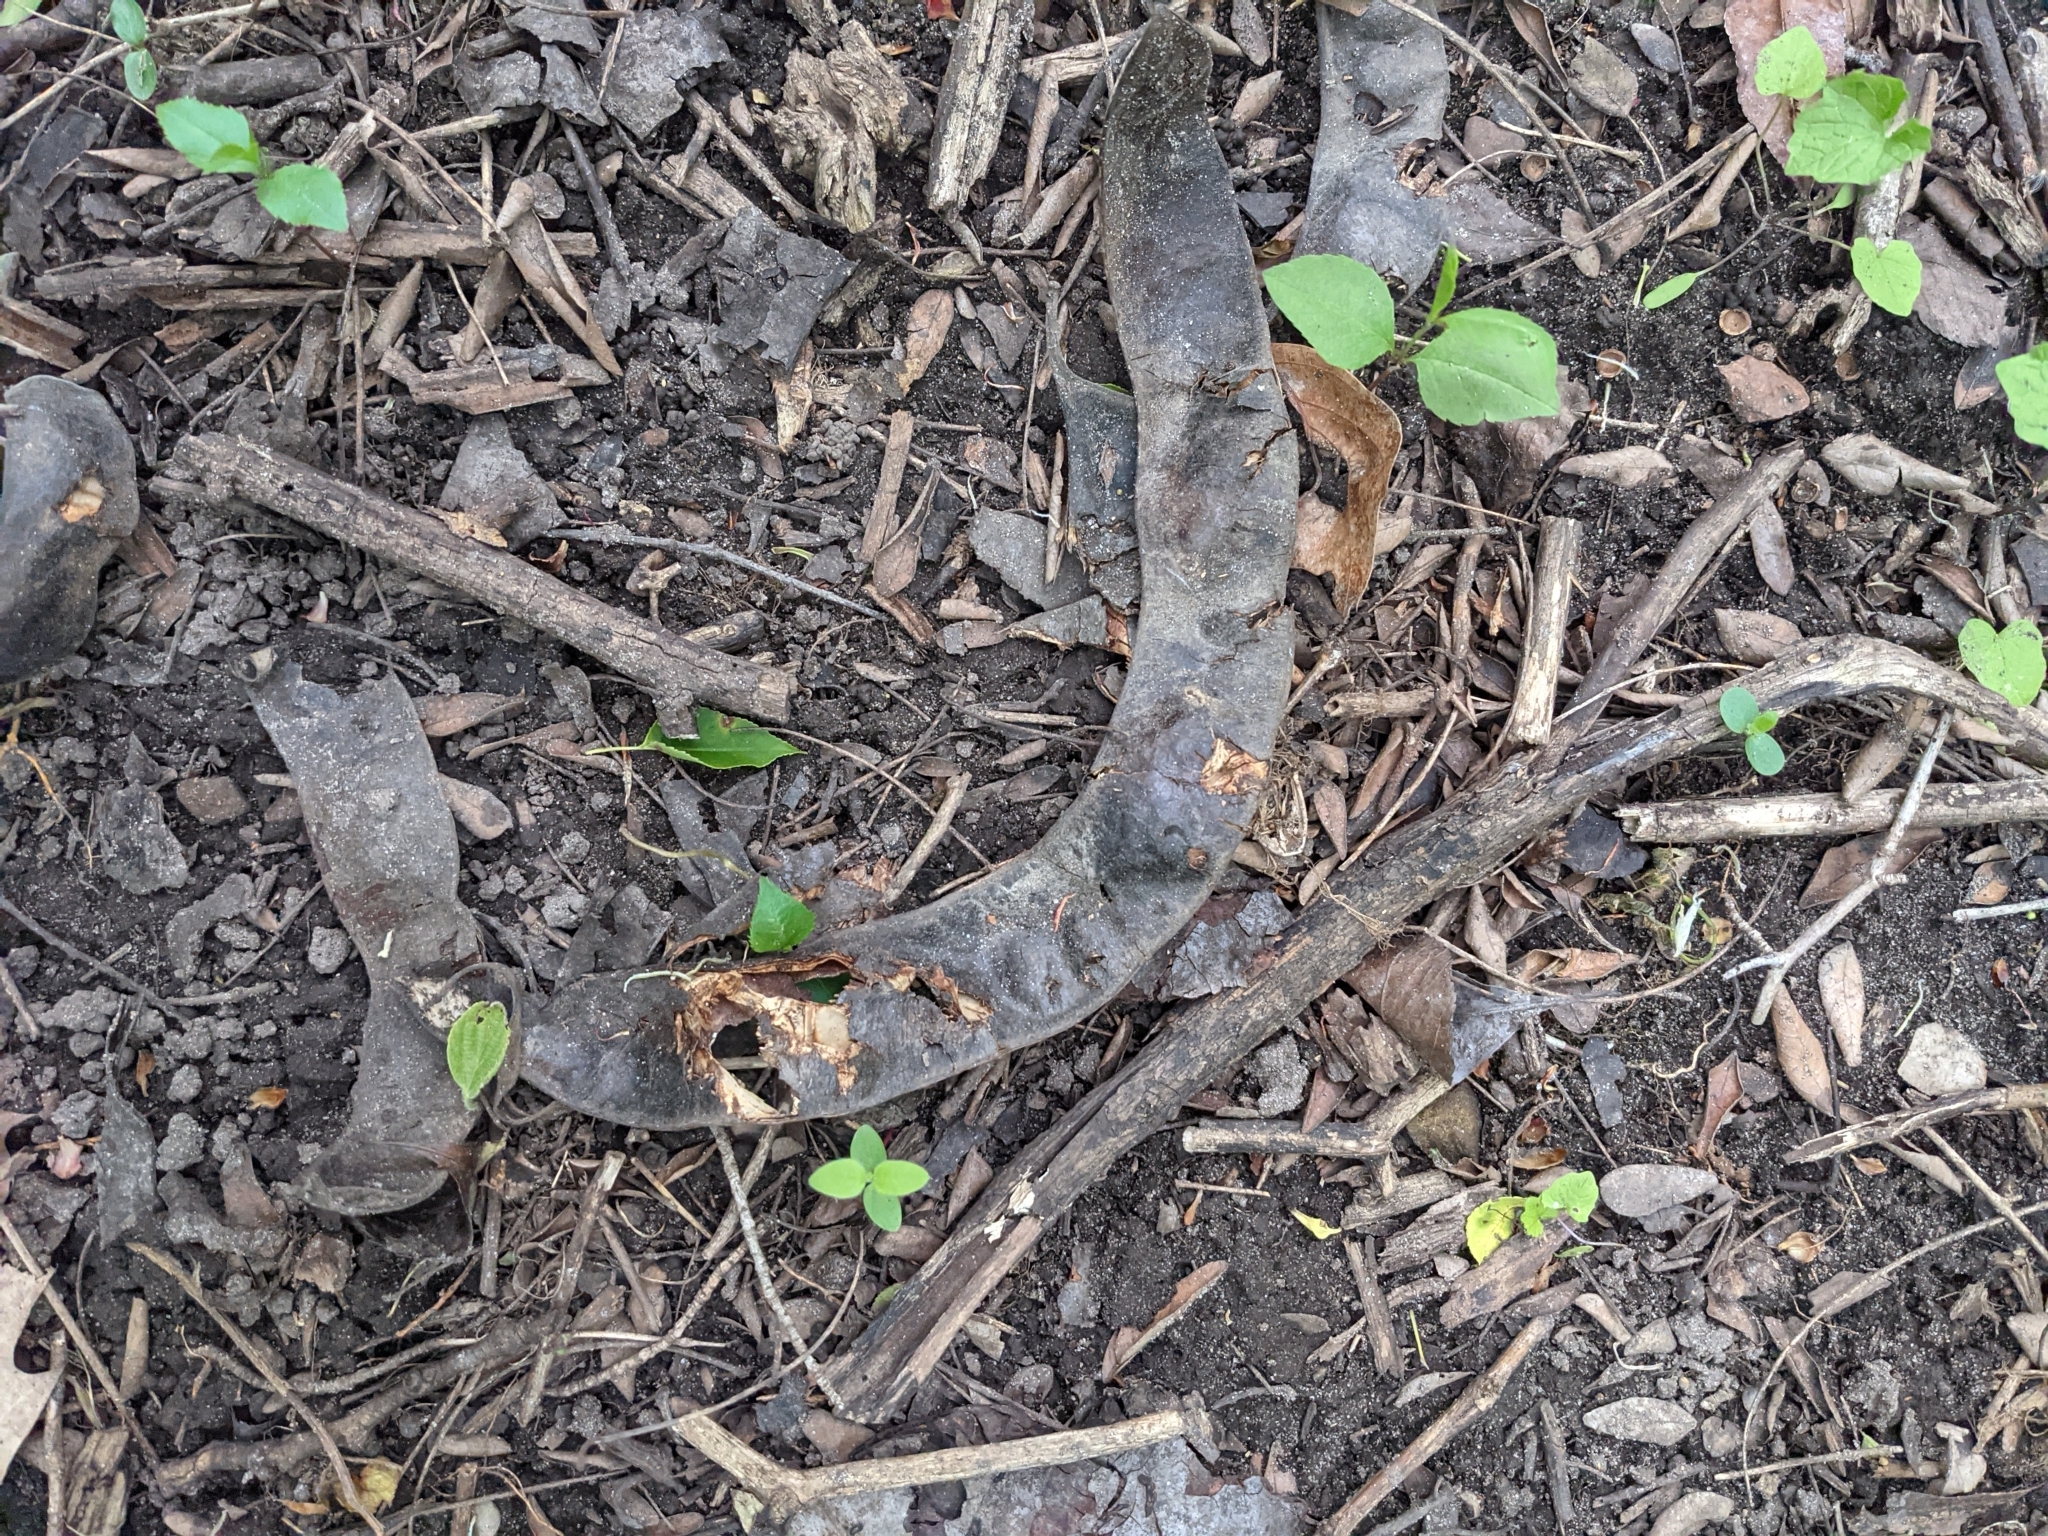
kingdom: Plantae
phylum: Tracheophyta
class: Magnoliopsida
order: Fabales
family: Fabaceae
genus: Gleditsia
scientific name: Gleditsia triacanthos
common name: Common honeylocust
